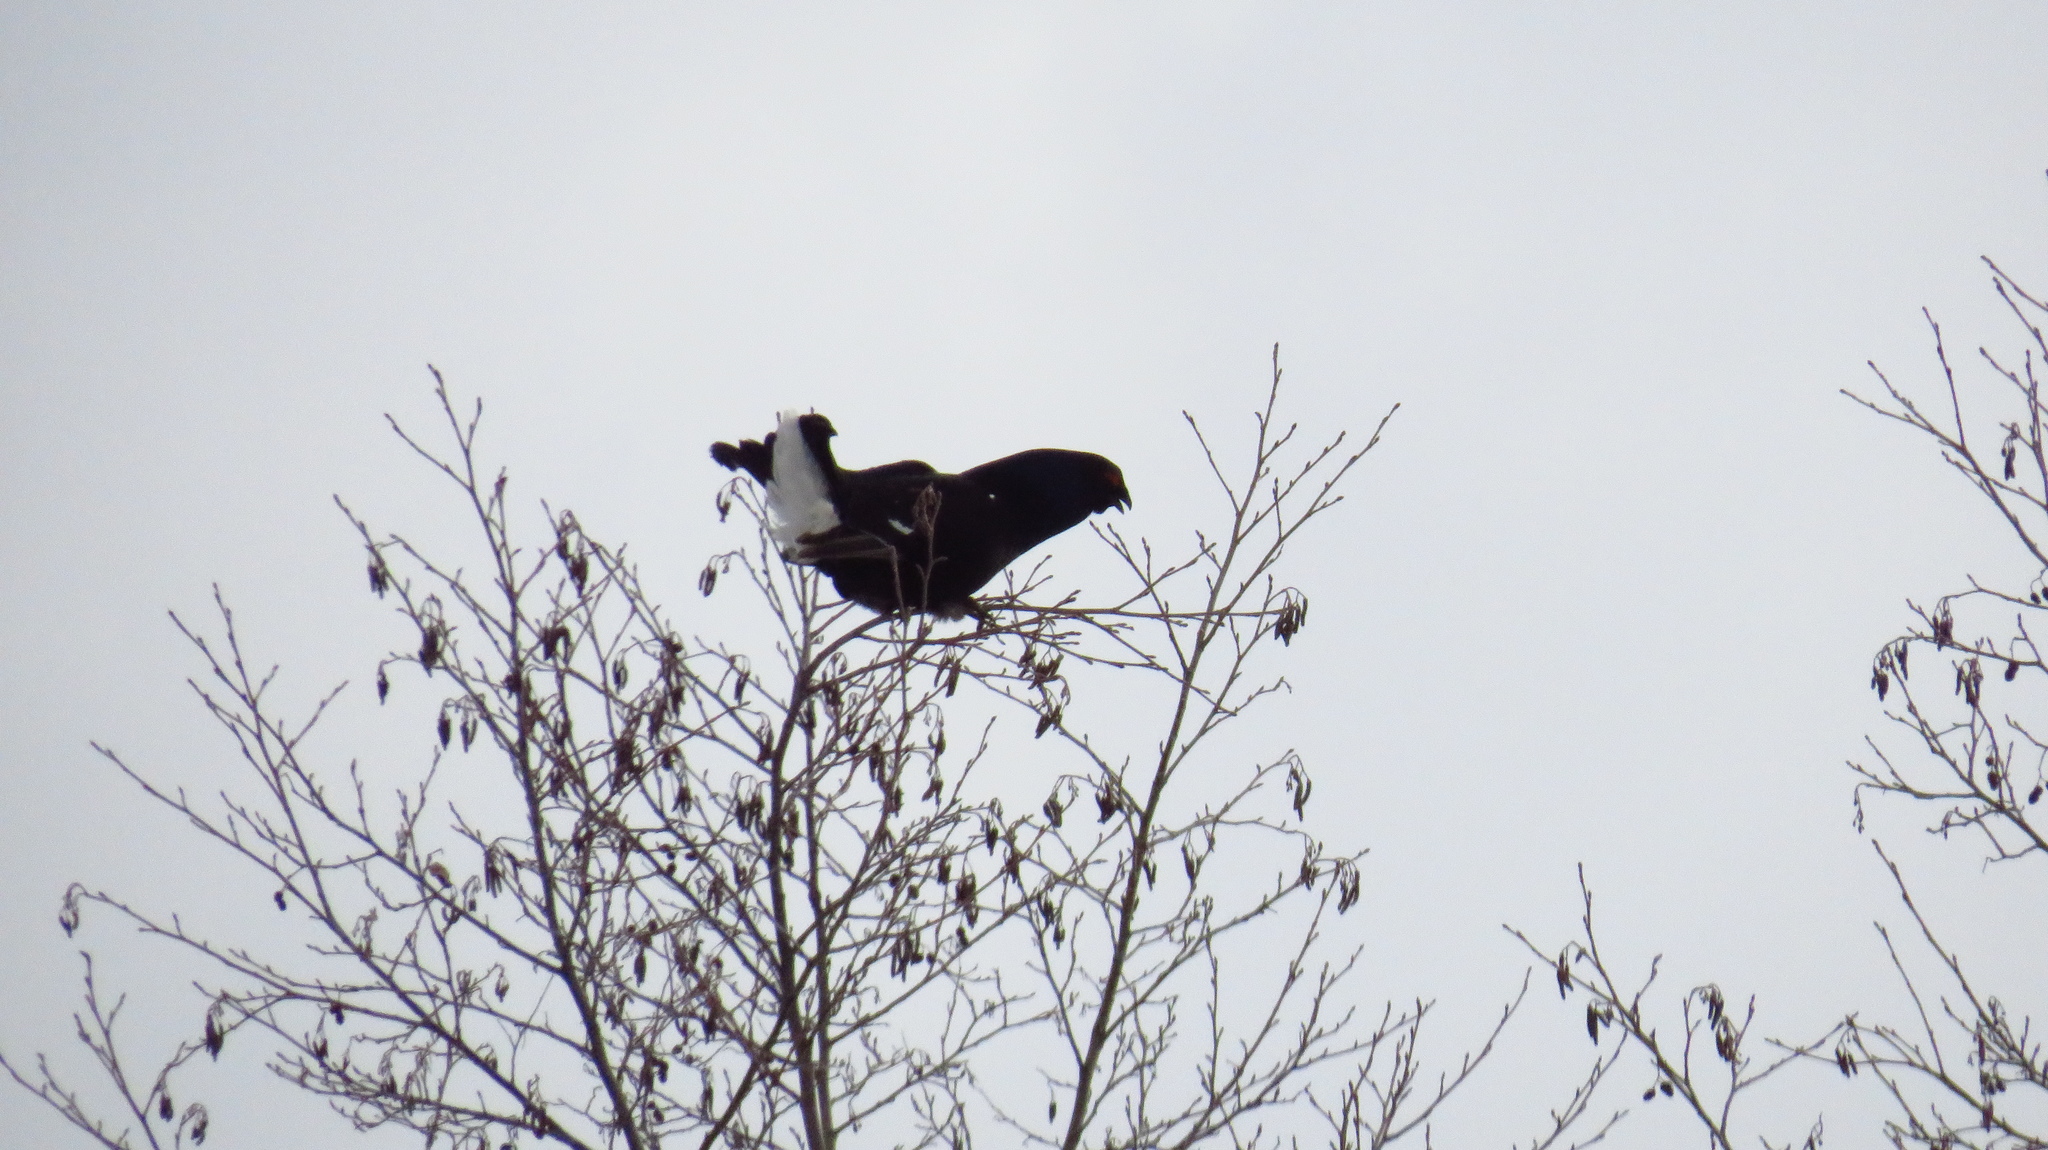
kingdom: Animalia
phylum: Chordata
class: Aves
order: Galliformes
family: Phasianidae
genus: Lyrurus
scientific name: Lyrurus tetrix
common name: Black grouse
